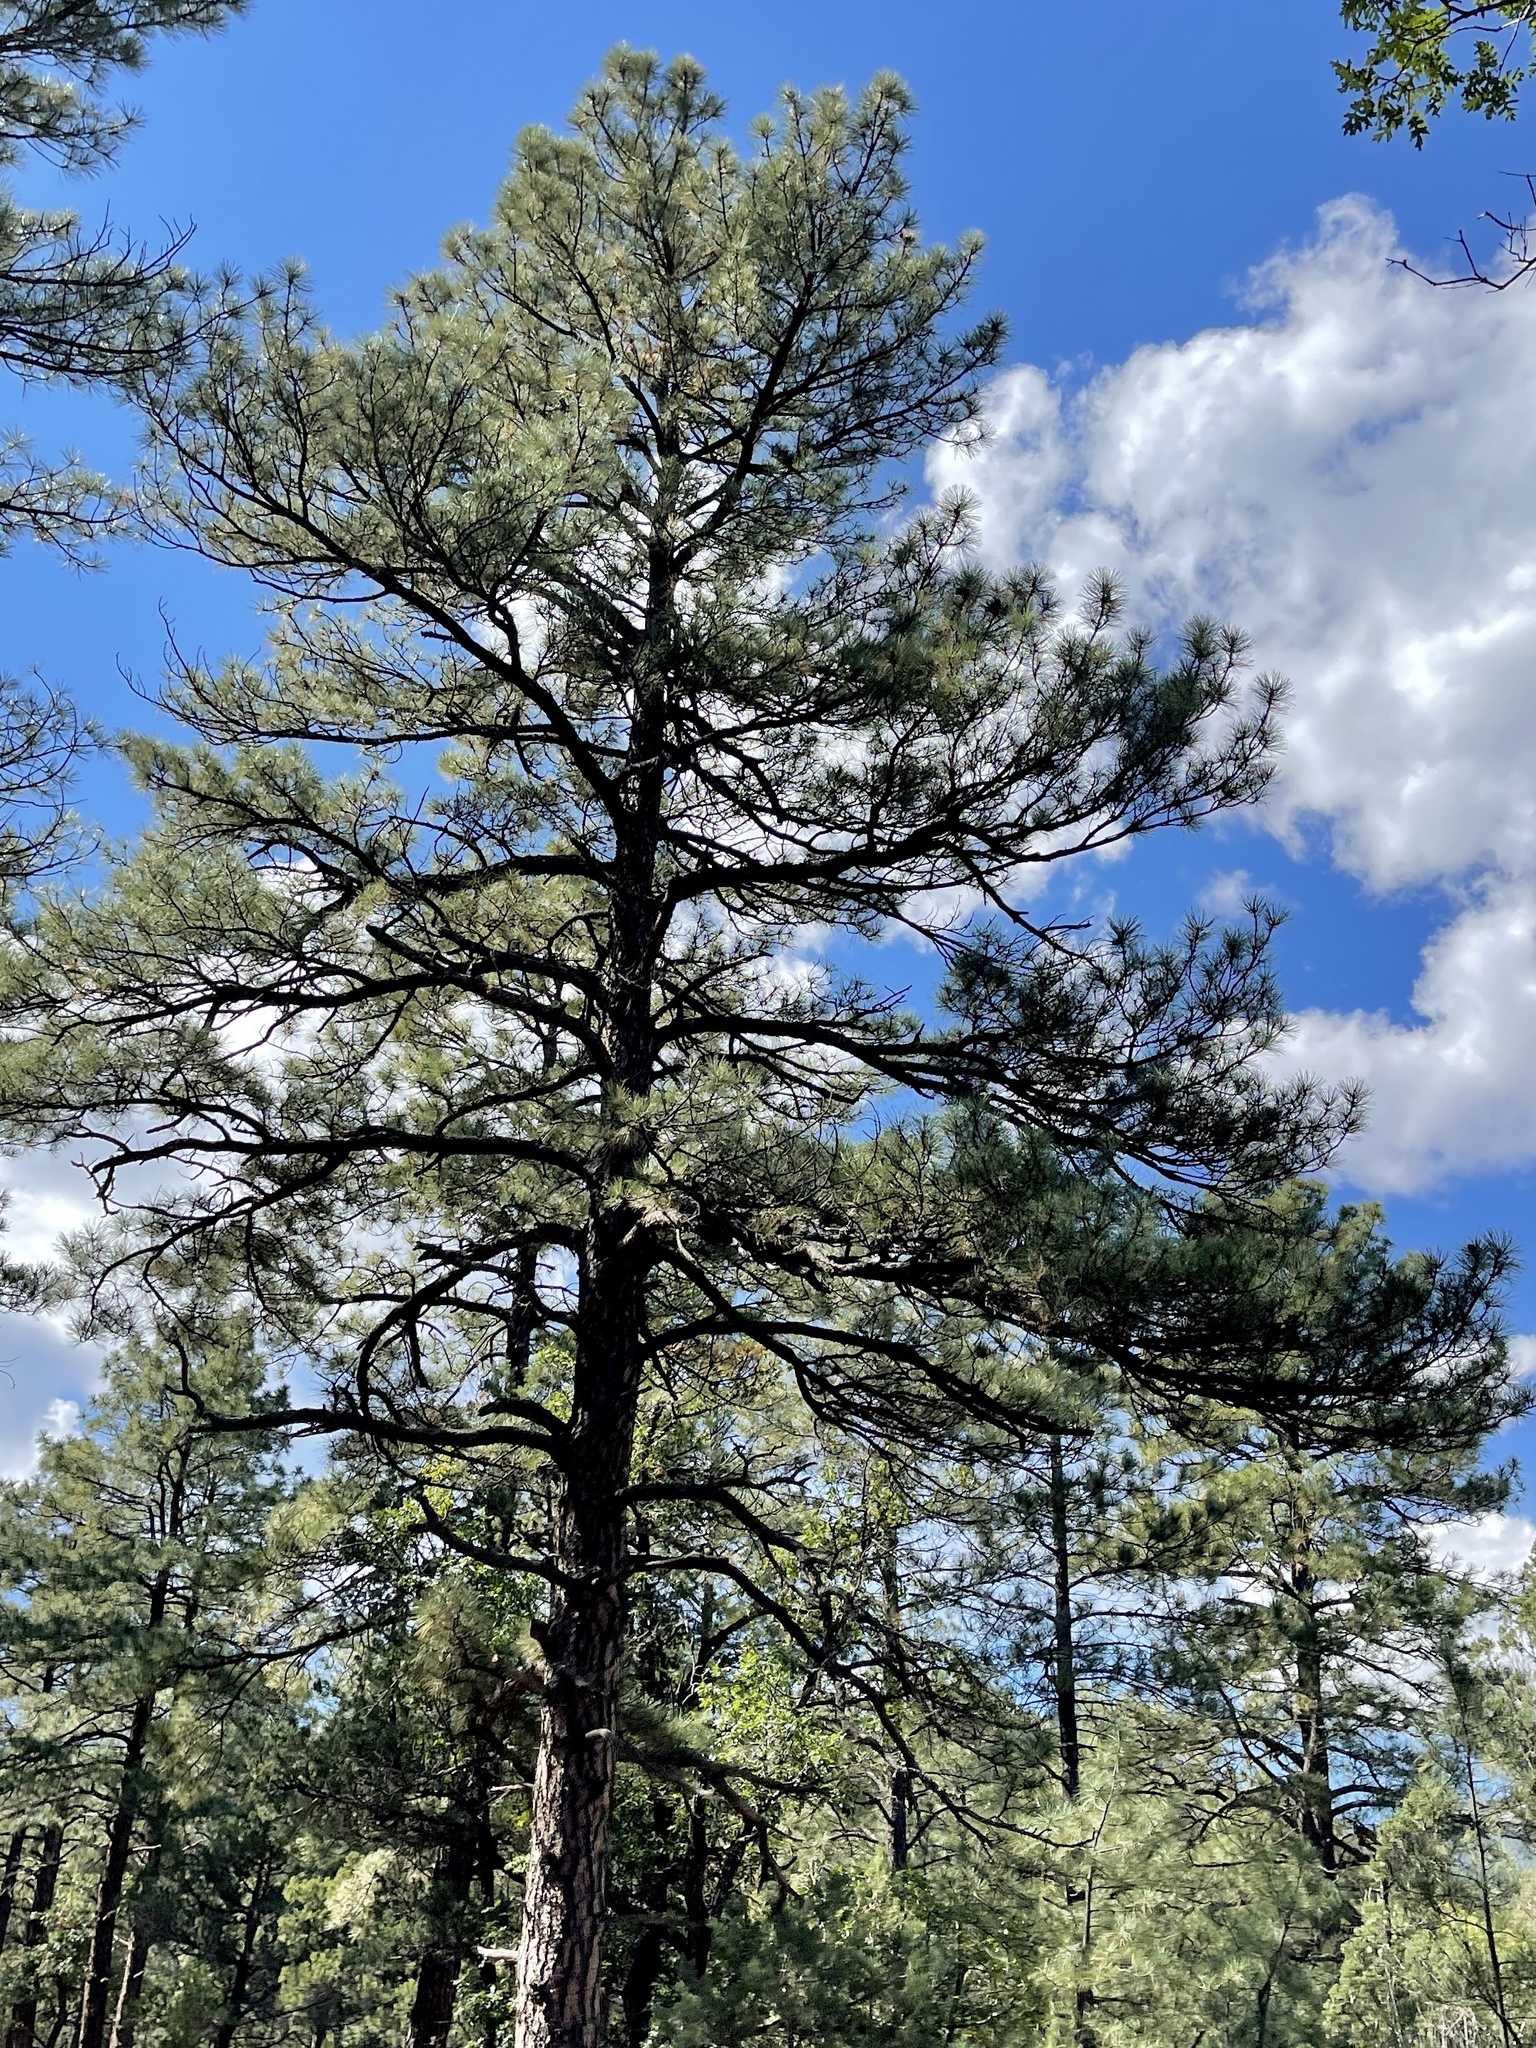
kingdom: Plantae
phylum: Tracheophyta
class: Pinopsida
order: Pinales
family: Pinaceae
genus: Pinus
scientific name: Pinus ponderosa
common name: Western yellow-pine
